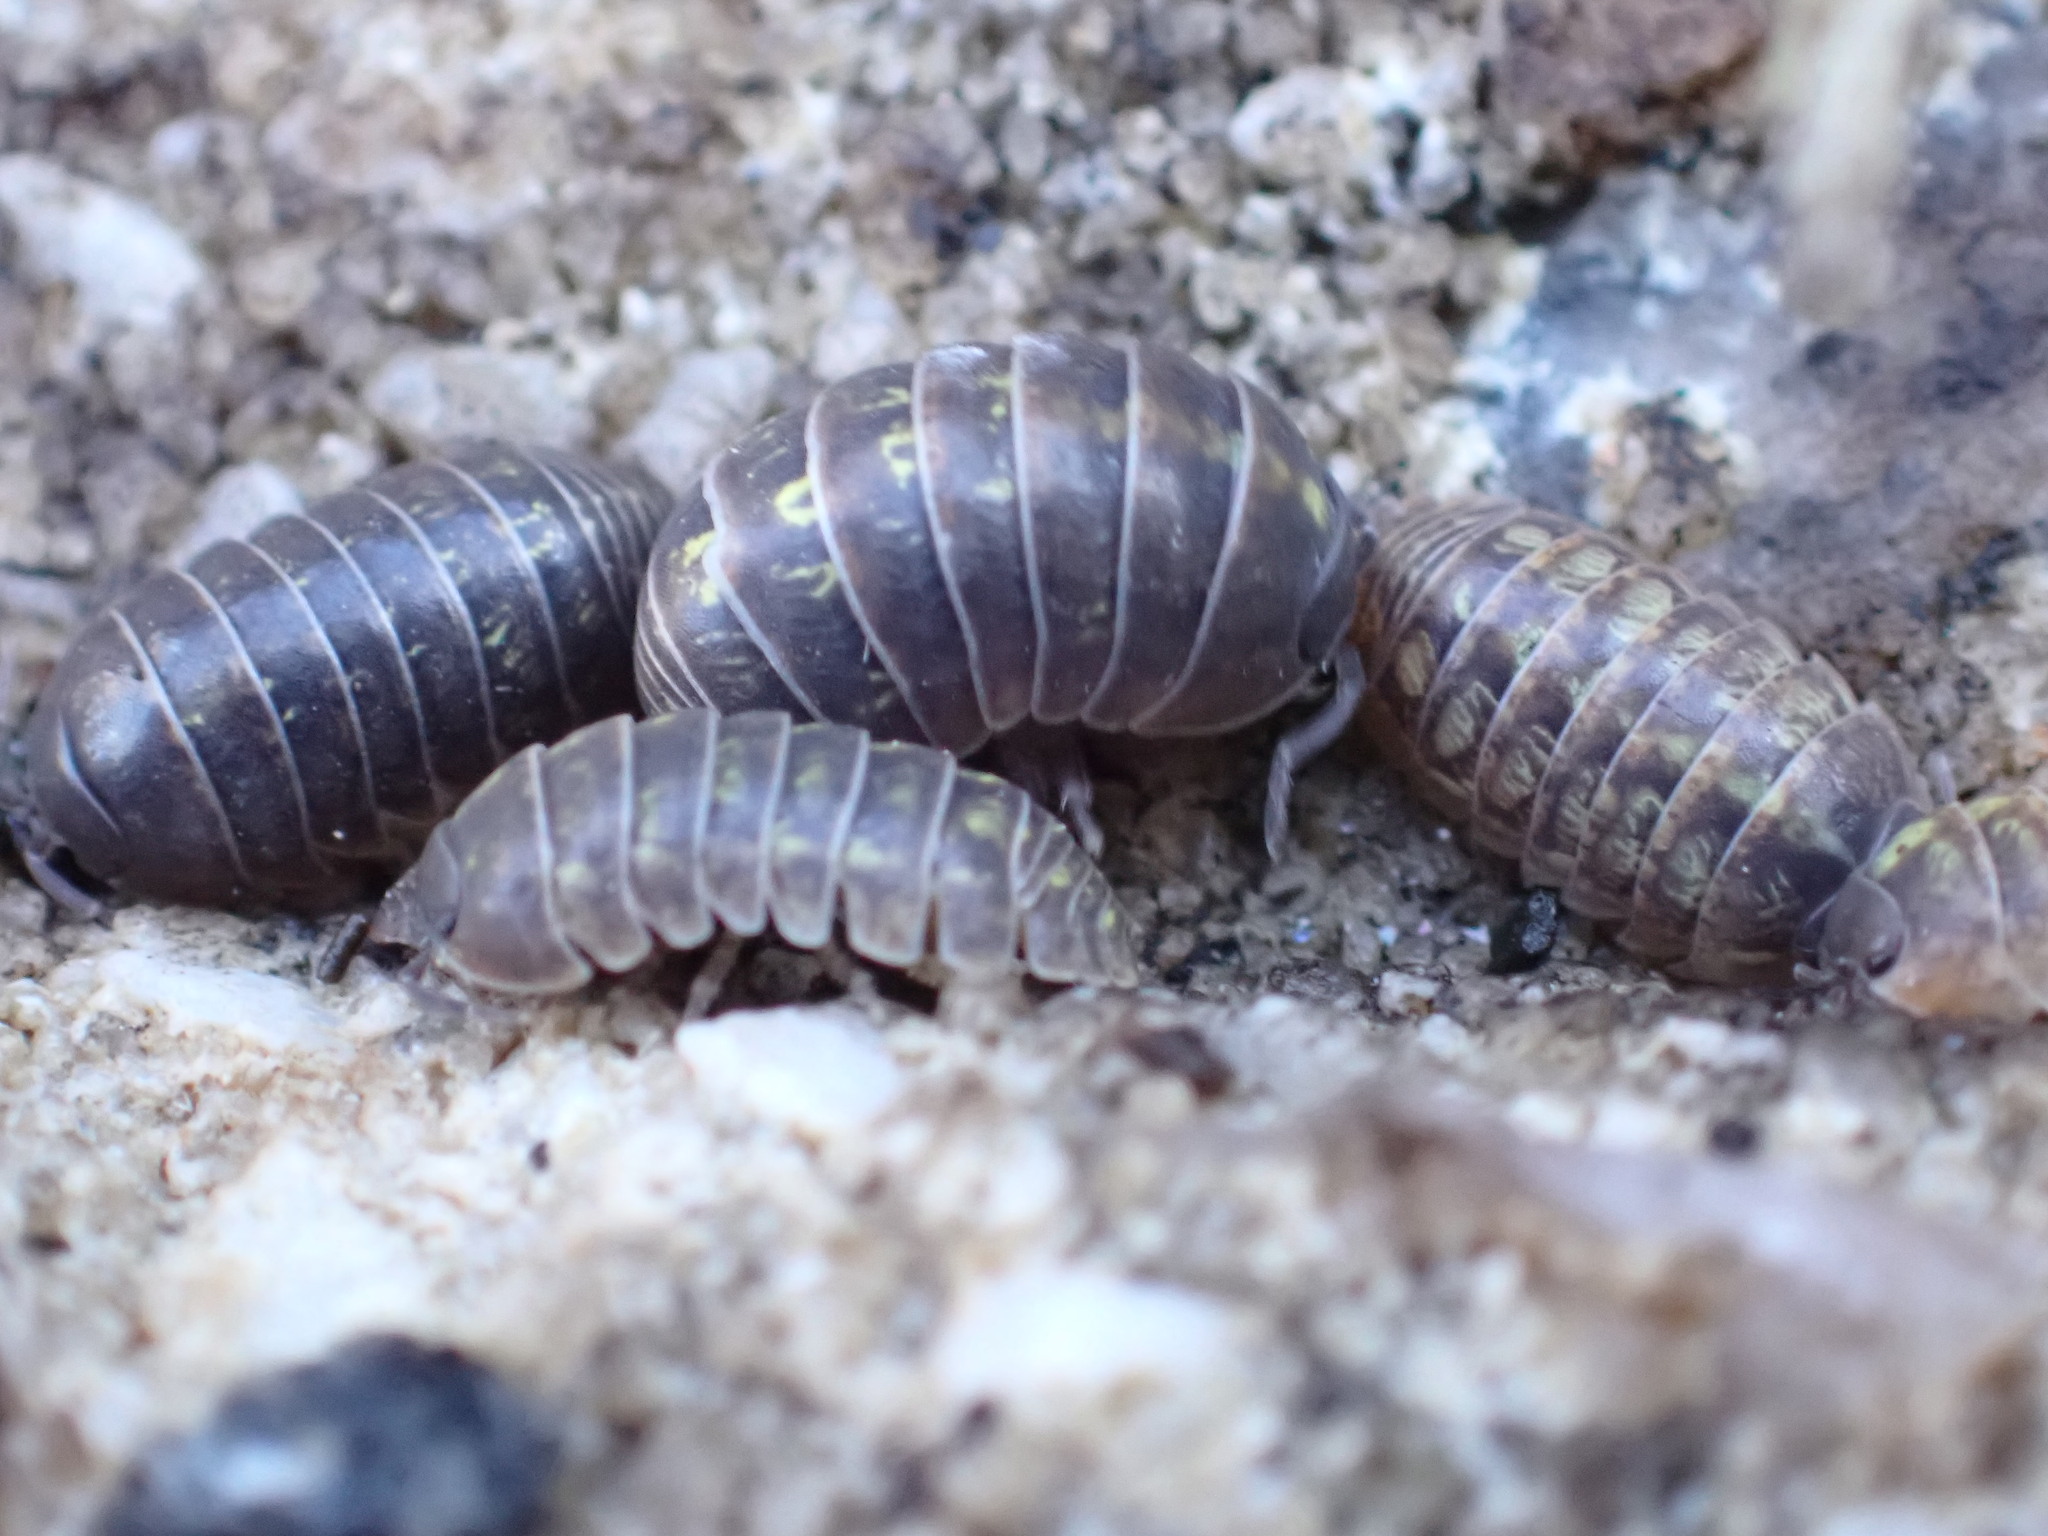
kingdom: Animalia
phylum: Arthropoda
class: Malacostraca
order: Isopoda
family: Armadillidiidae
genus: Armadillidium
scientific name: Armadillidium vulgare
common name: Common pill woodlouse
